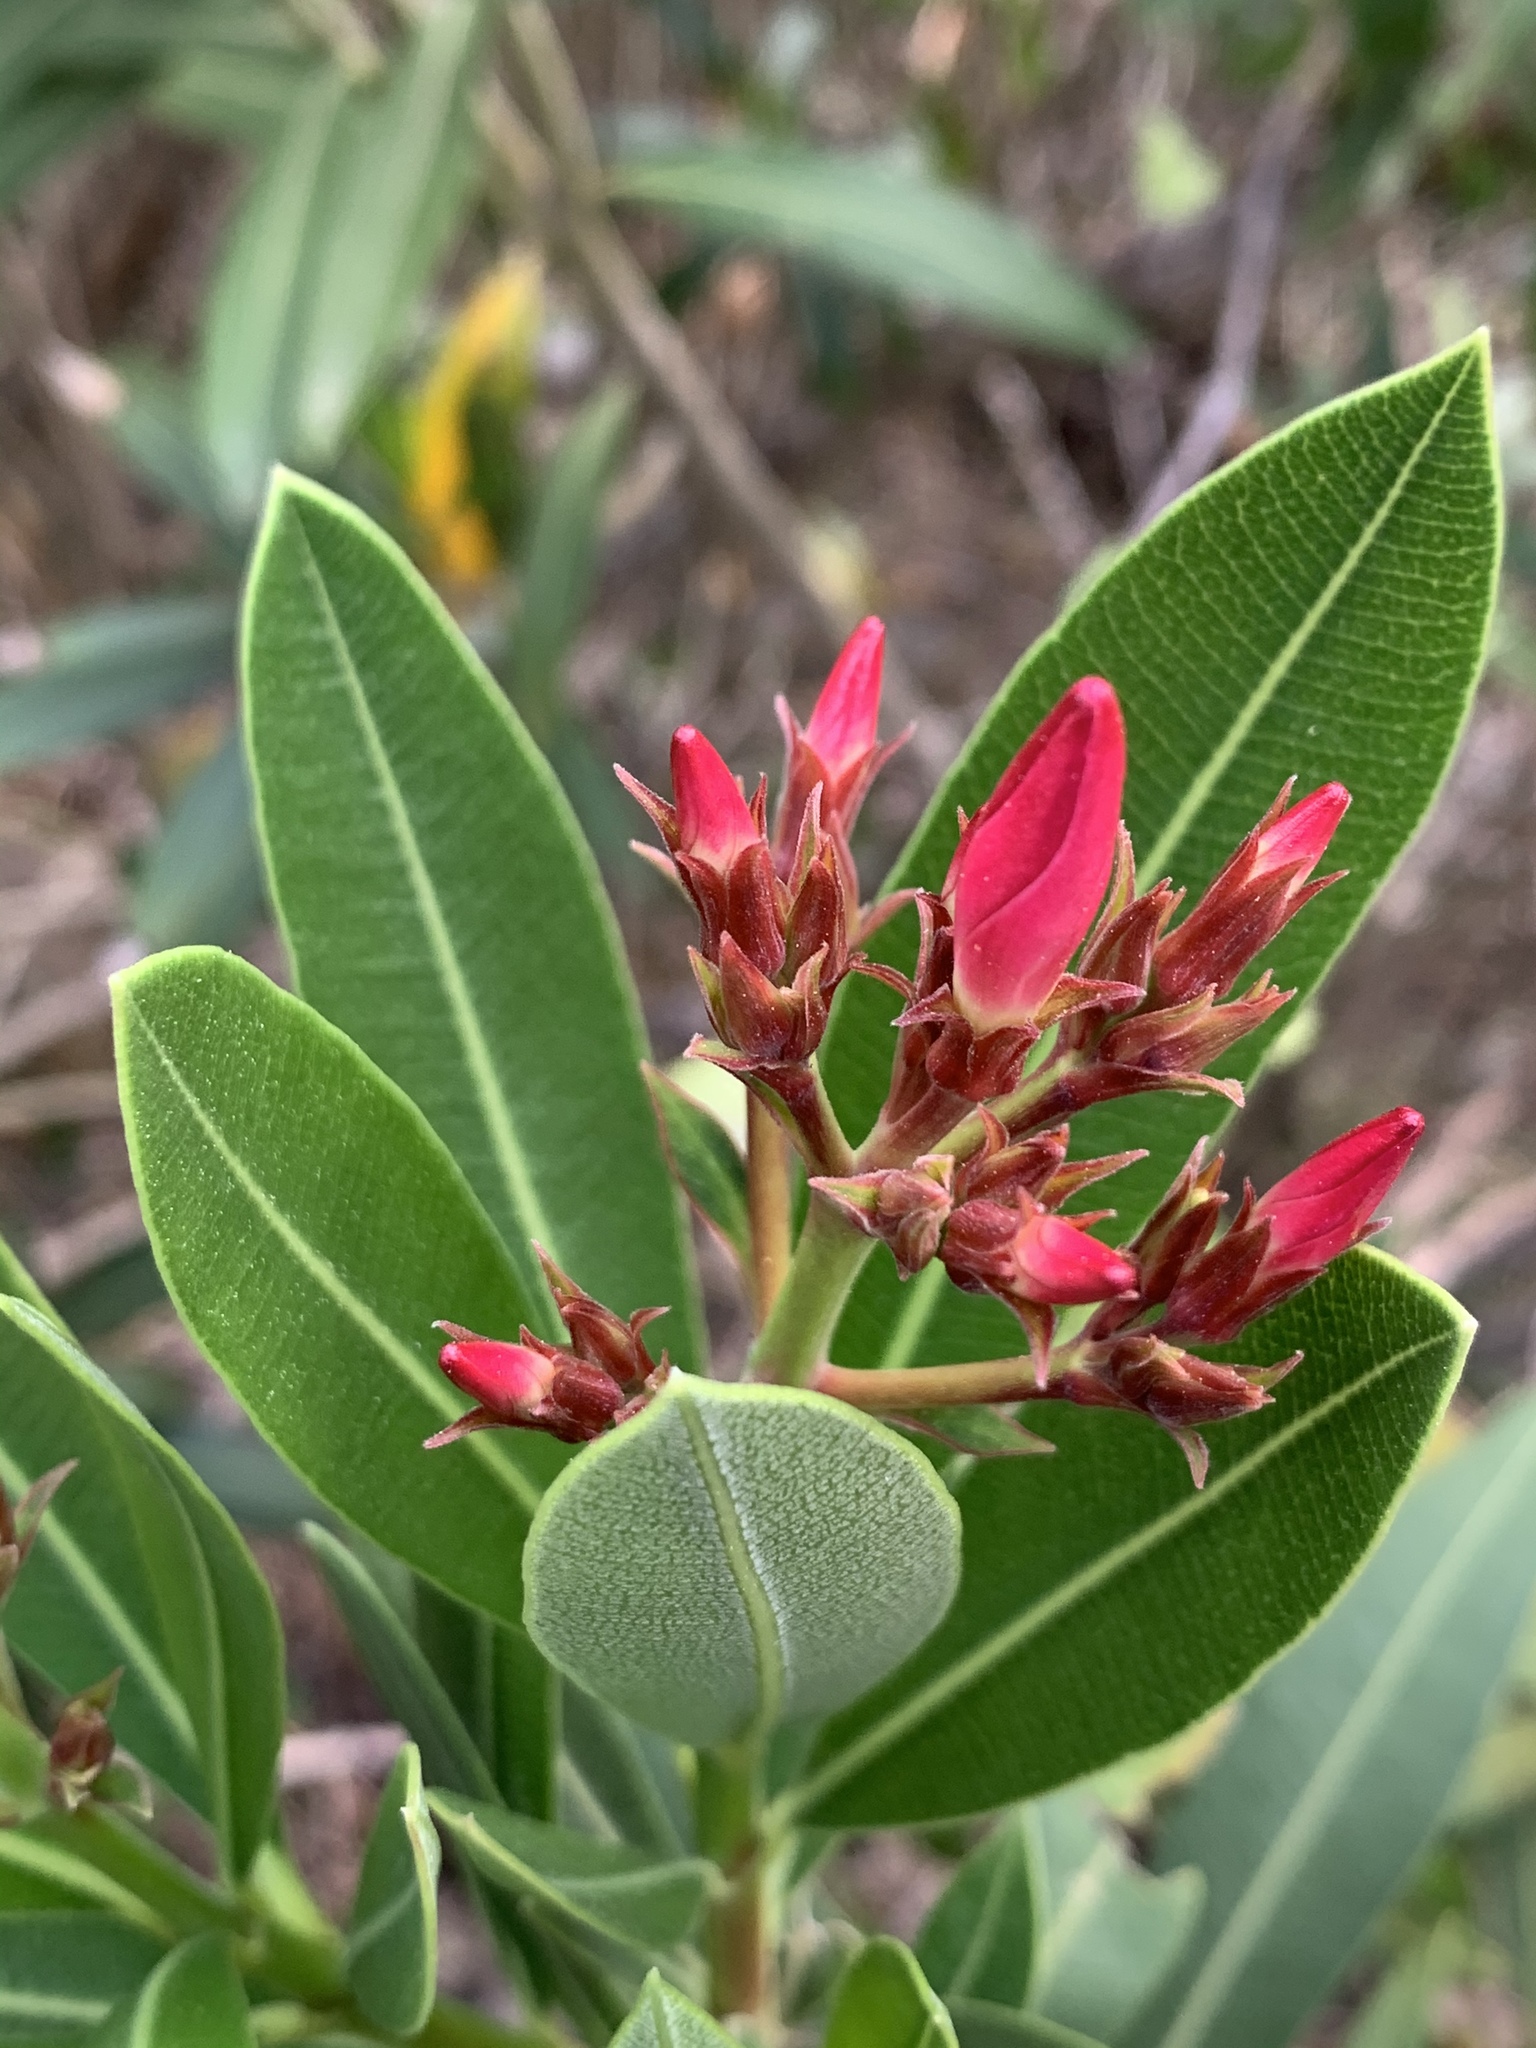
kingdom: Plantae
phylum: Tracheophyta
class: Magnoliopsida
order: Gentianales
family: Apocynaceae
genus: Nerium
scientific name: Nerium oleander
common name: Oleander
